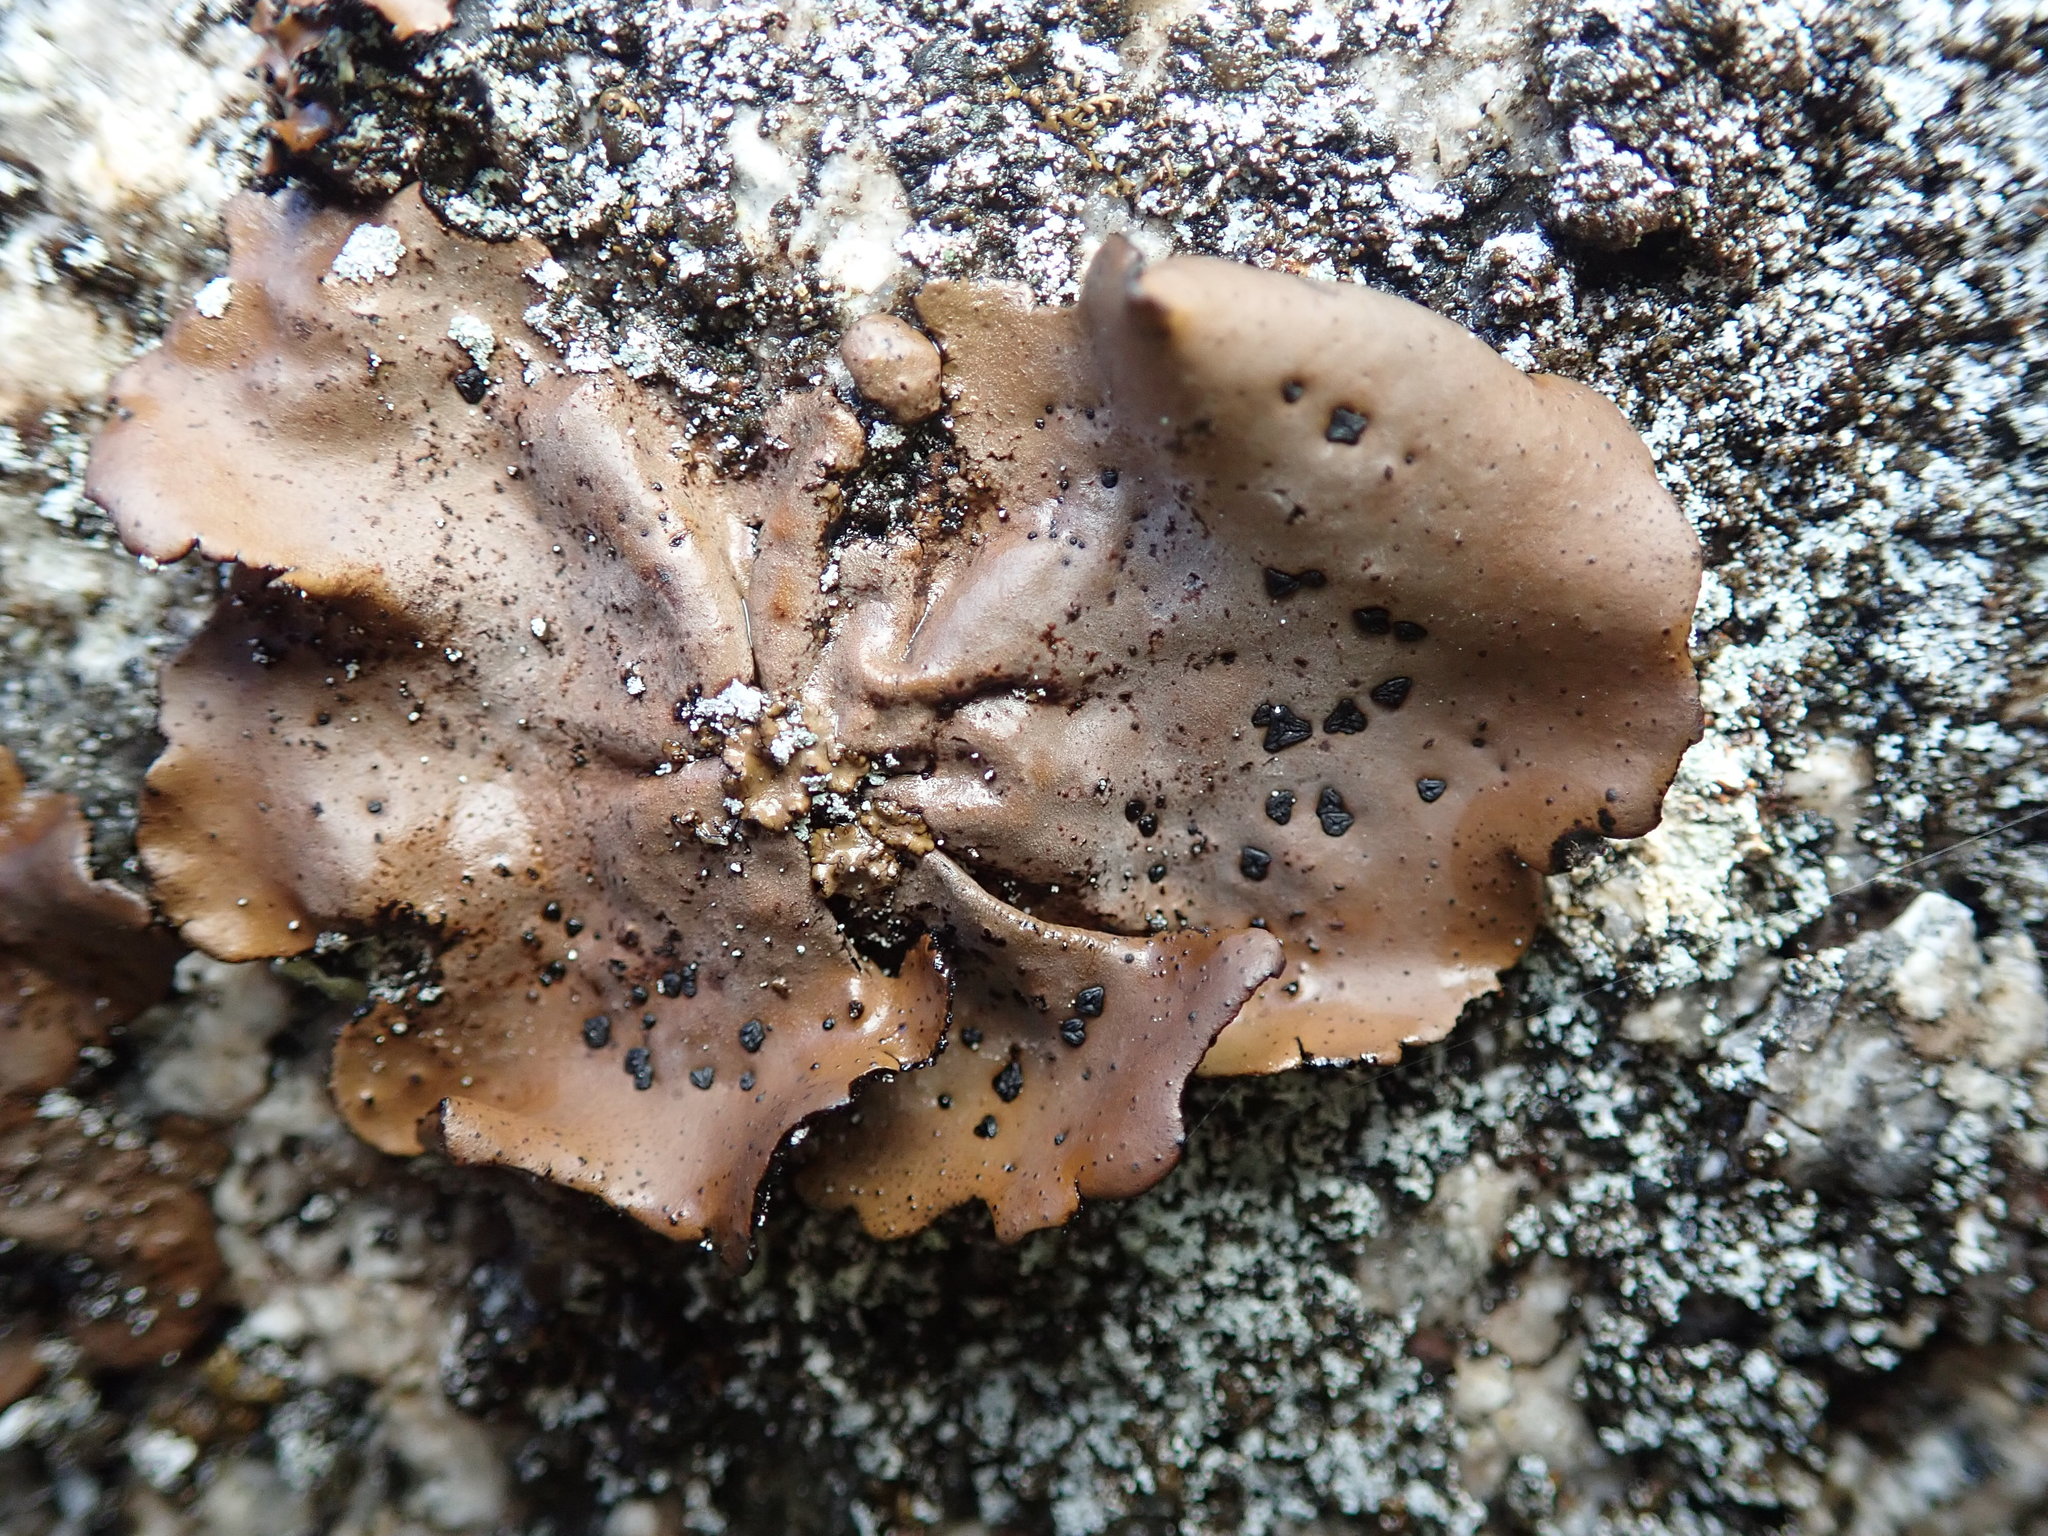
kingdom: Fungi
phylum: Ascomycota
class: Lecanoromycetes
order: Umbilicariales
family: Umbilicariaceae
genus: Umbilicaria
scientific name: Umbilicaria angulata
